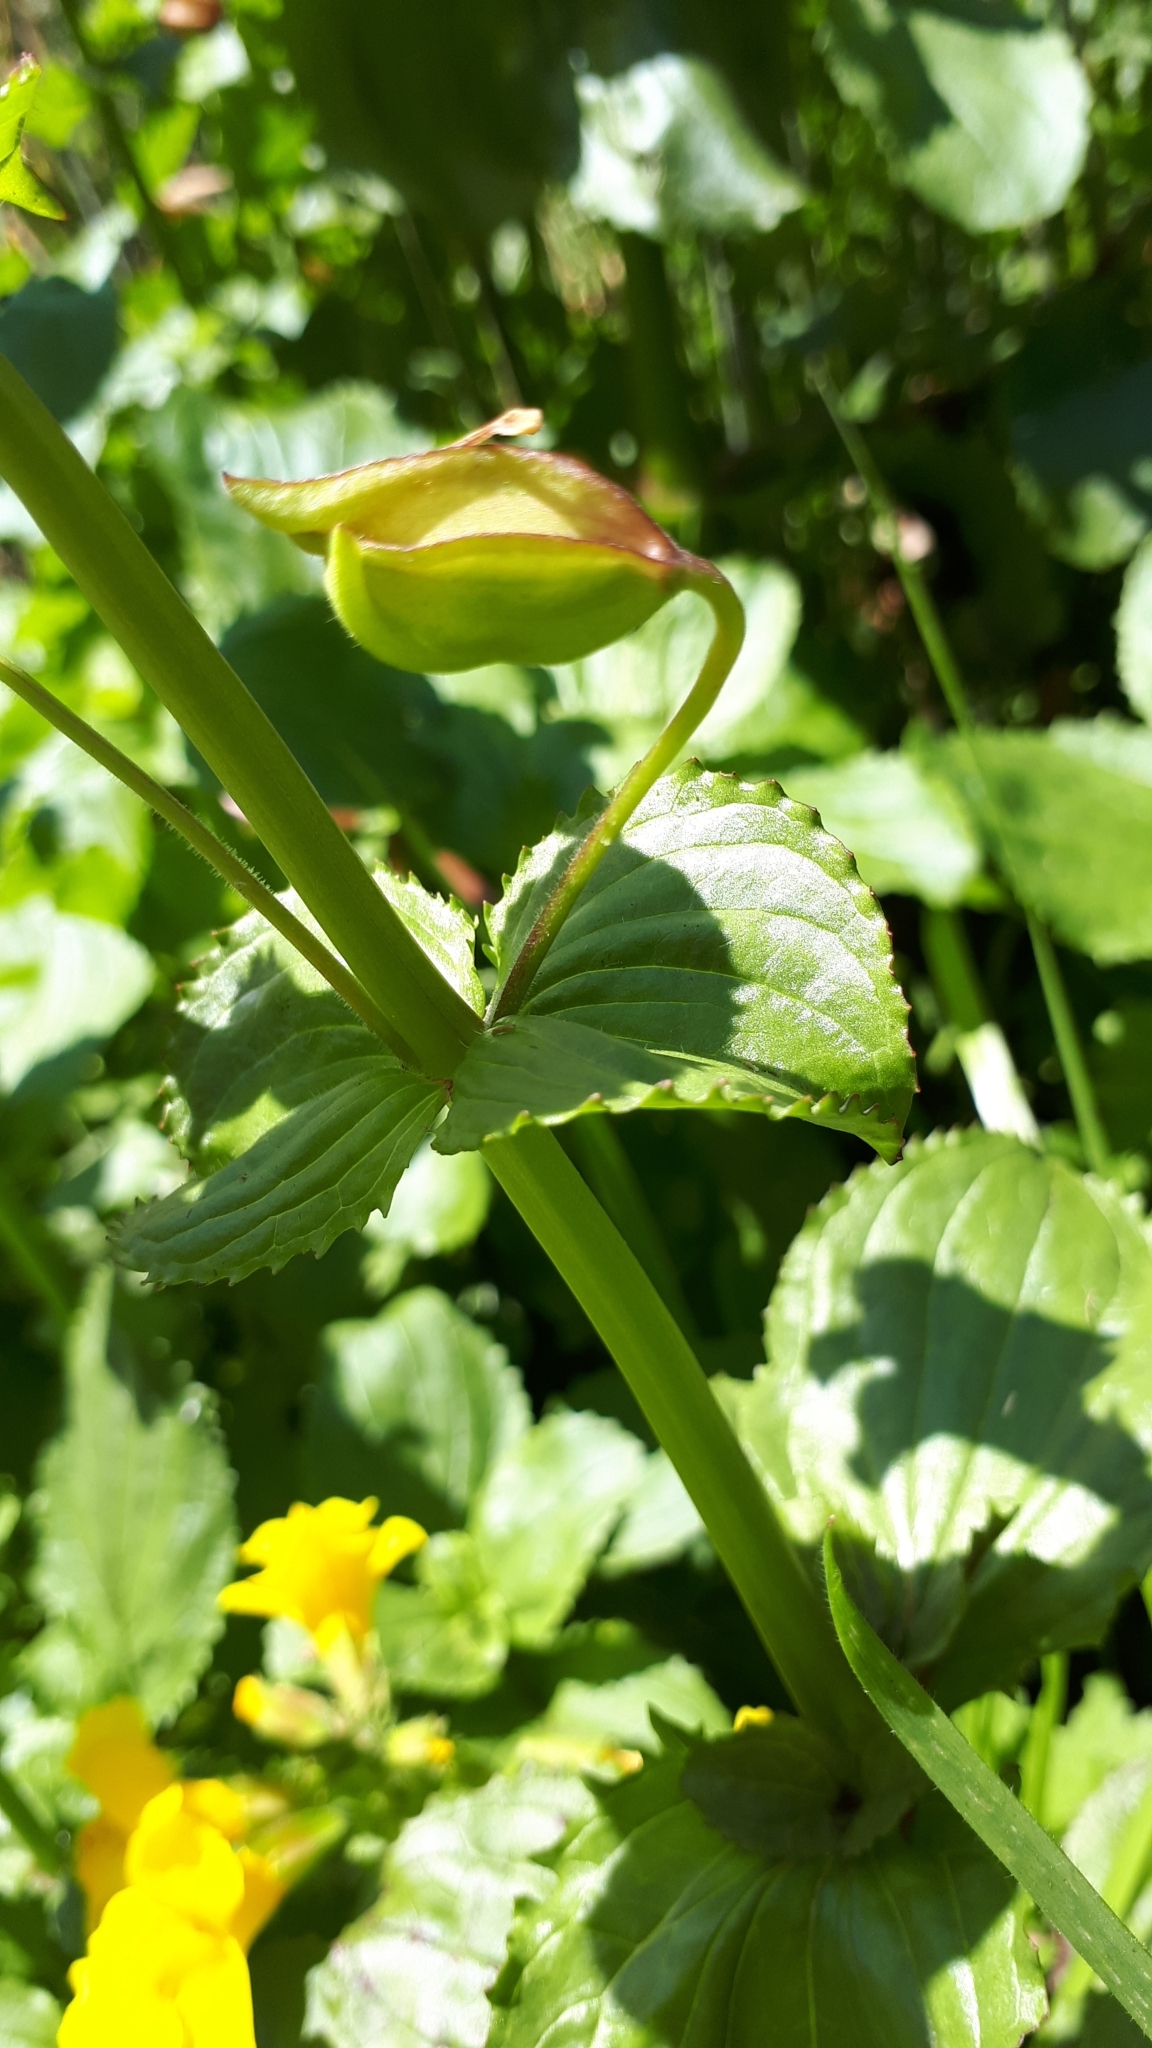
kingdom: Plantae
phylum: Tracheophyta
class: Magnoliopsida
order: Lamiales
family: Phrymaceae
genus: Erythranthe
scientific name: Erythranthe guttata
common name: Monkeyflower
